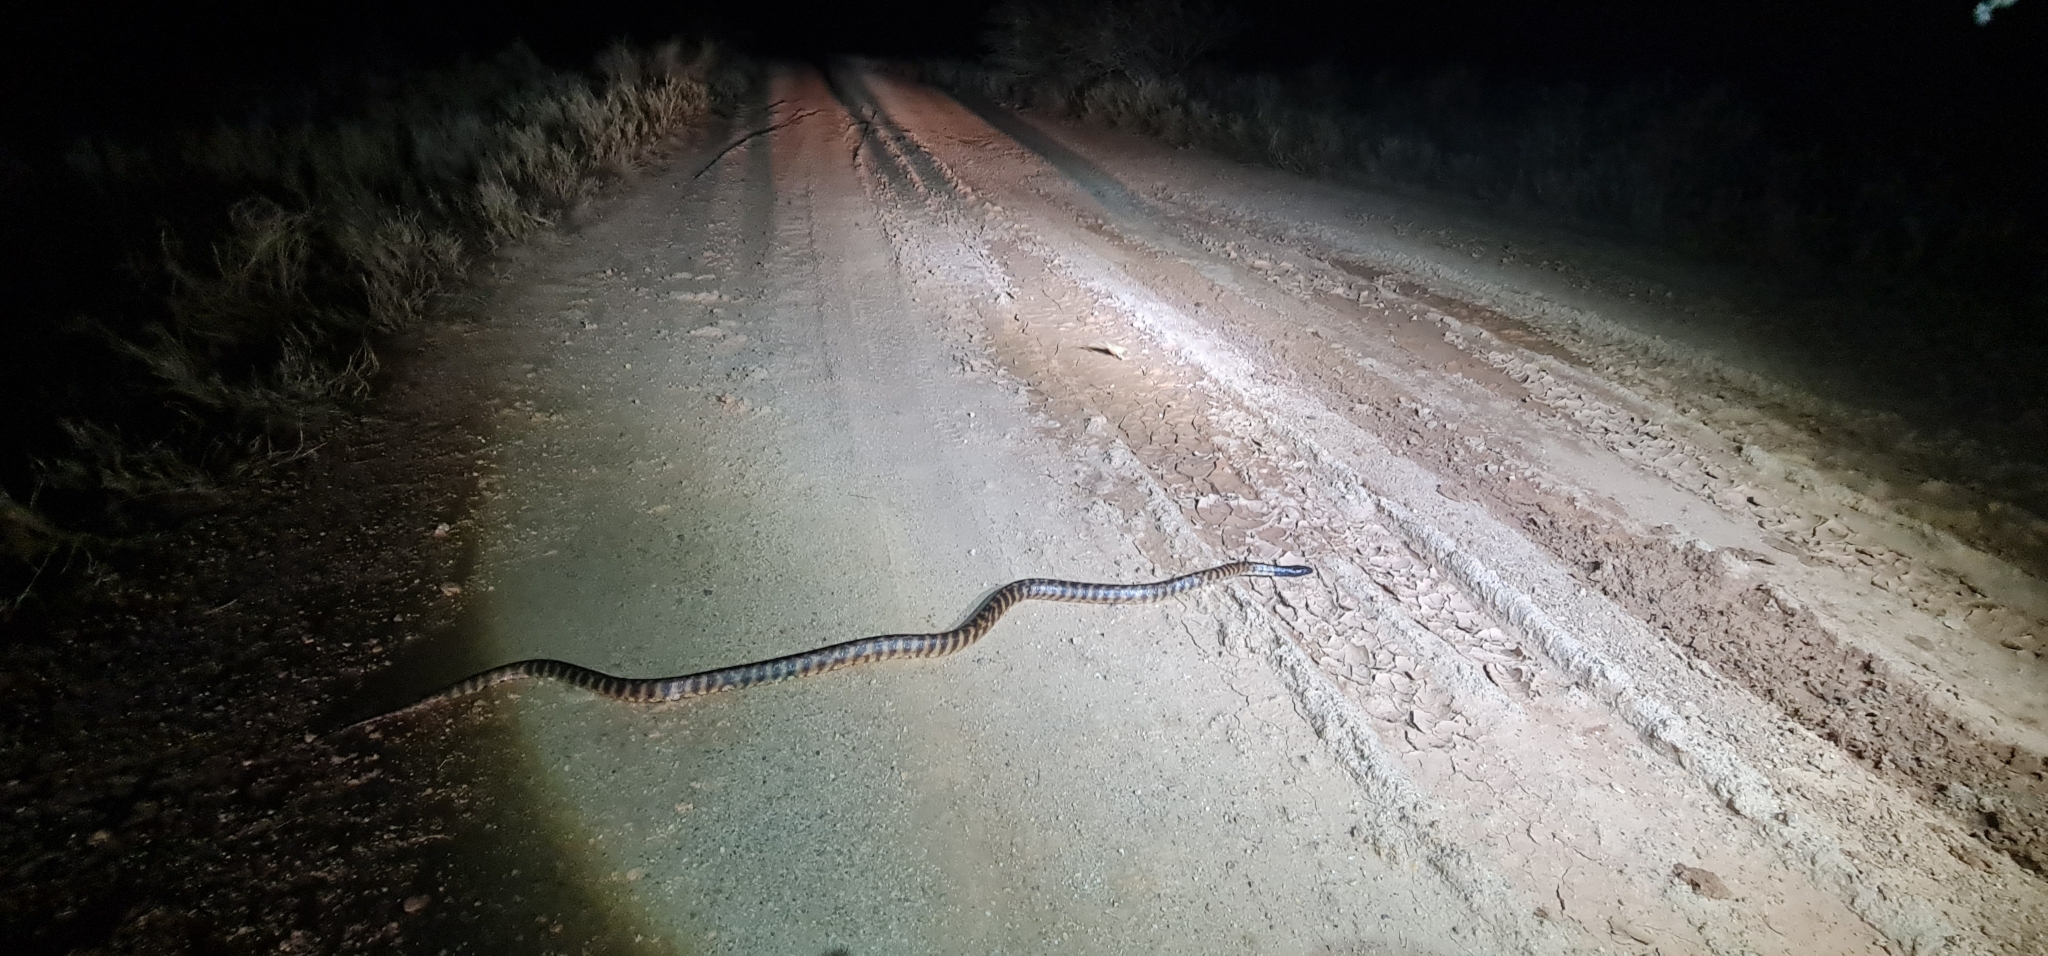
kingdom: Animalia
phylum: Chordata
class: Squamata
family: Pythonidae
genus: Aspidites
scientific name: Aspidites melanocephalus
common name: Black-headed python
